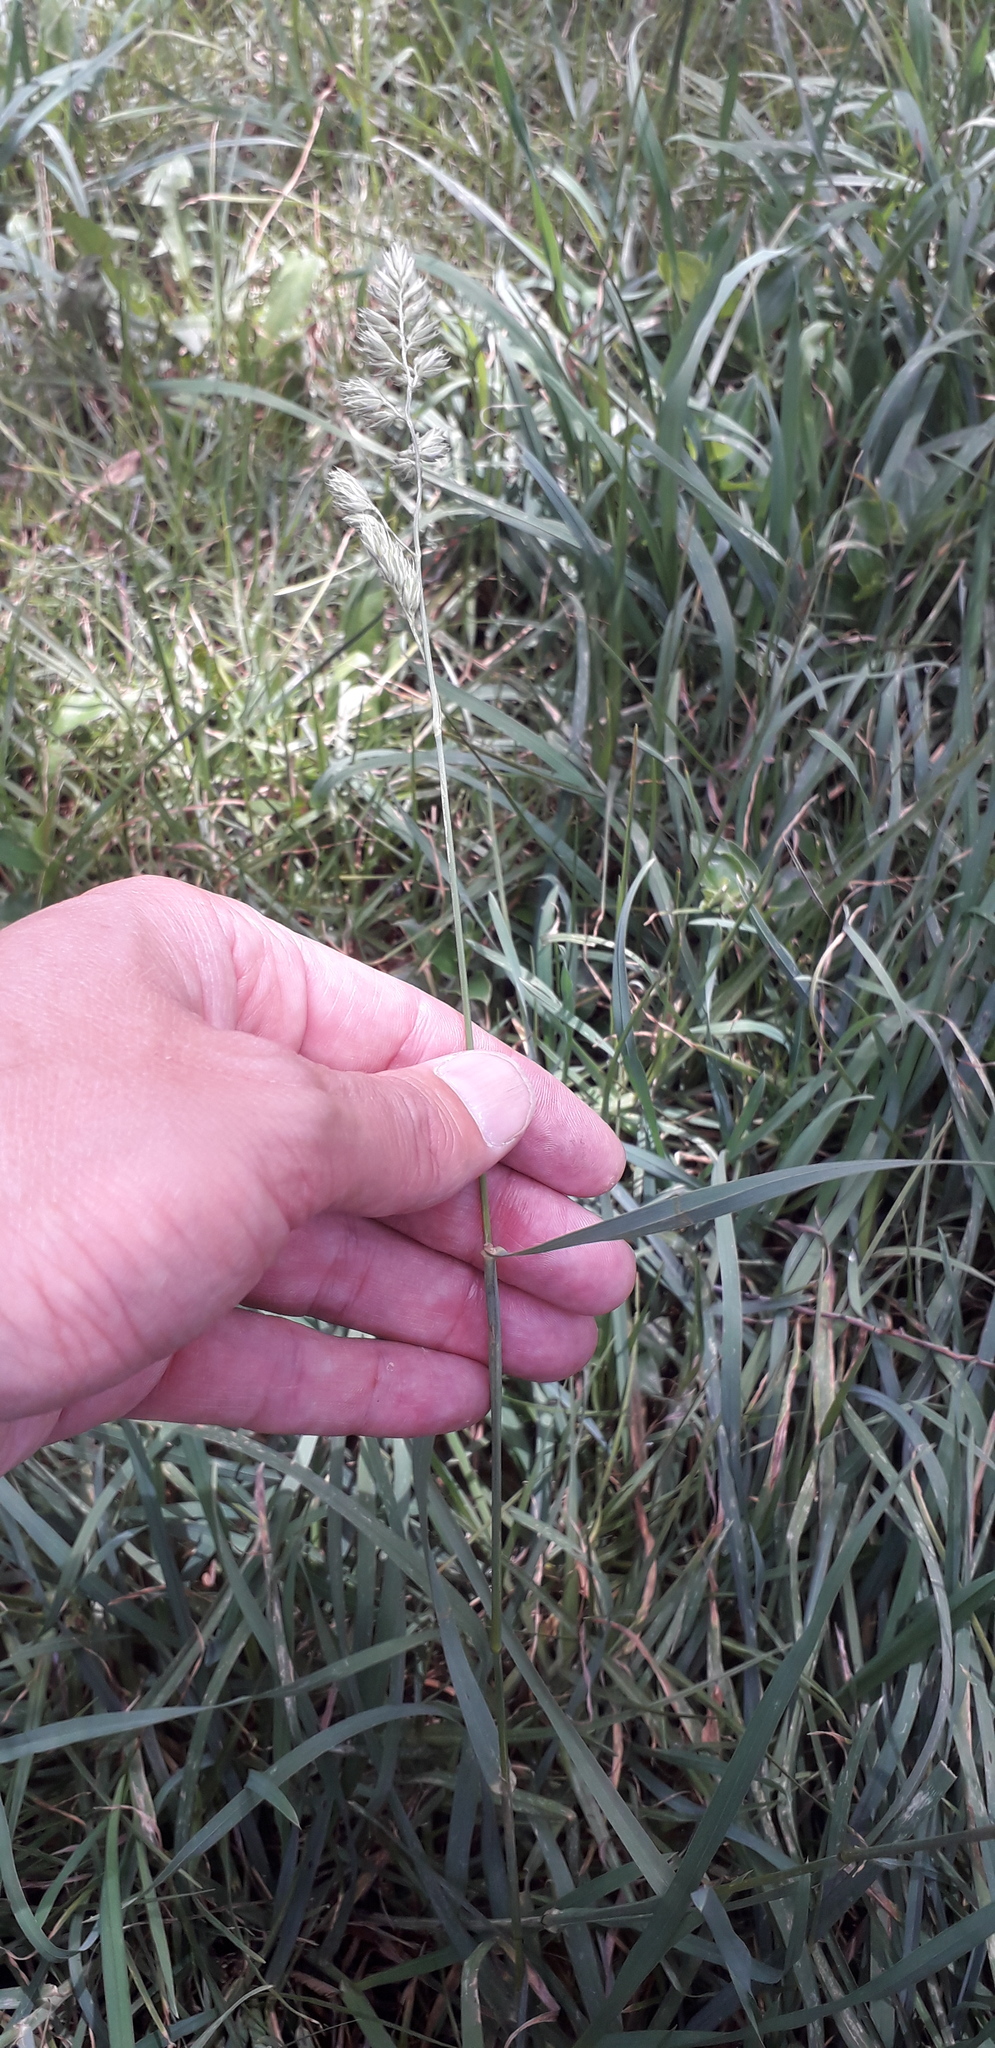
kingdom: Plantae
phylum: Tracheophyta
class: Liliopsida
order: Poales
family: Poaceae
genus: Dactylis
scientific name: Dactylis glomerata
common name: Orchardgrass
